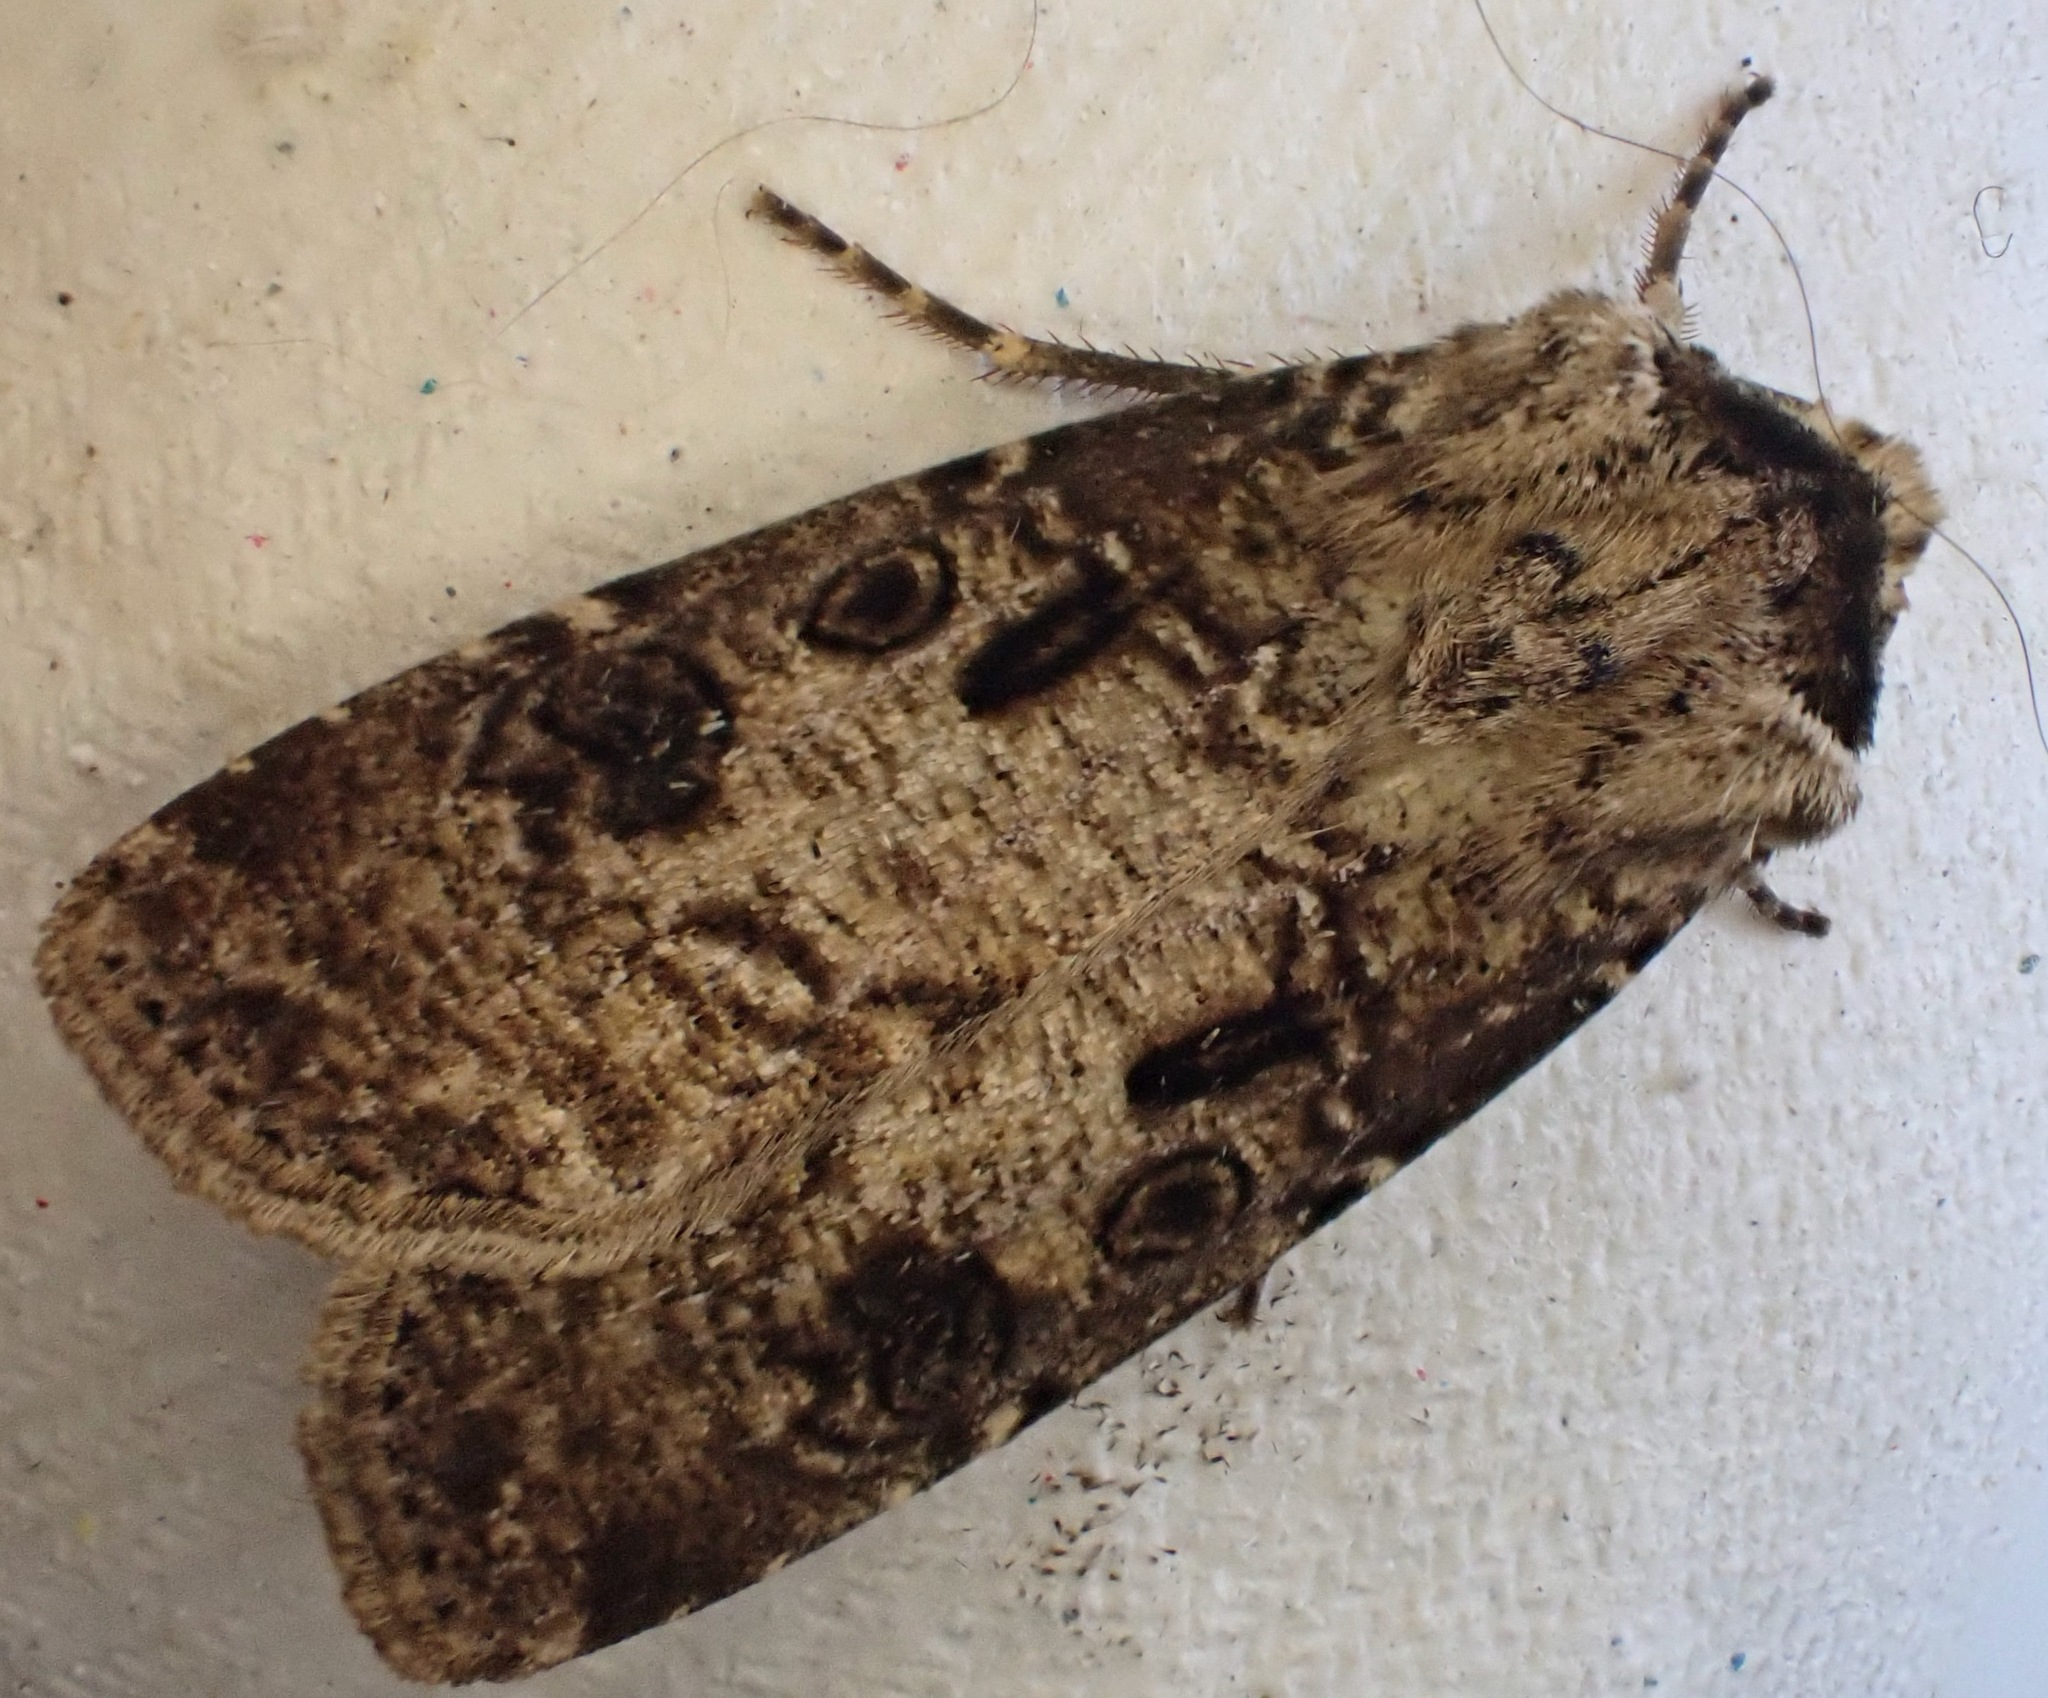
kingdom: Animalia
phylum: Arthropoda
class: Insecta
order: Lepidoptera
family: Noctuidae
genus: Agrotis
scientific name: Agrotis clavis
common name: Heart and club
